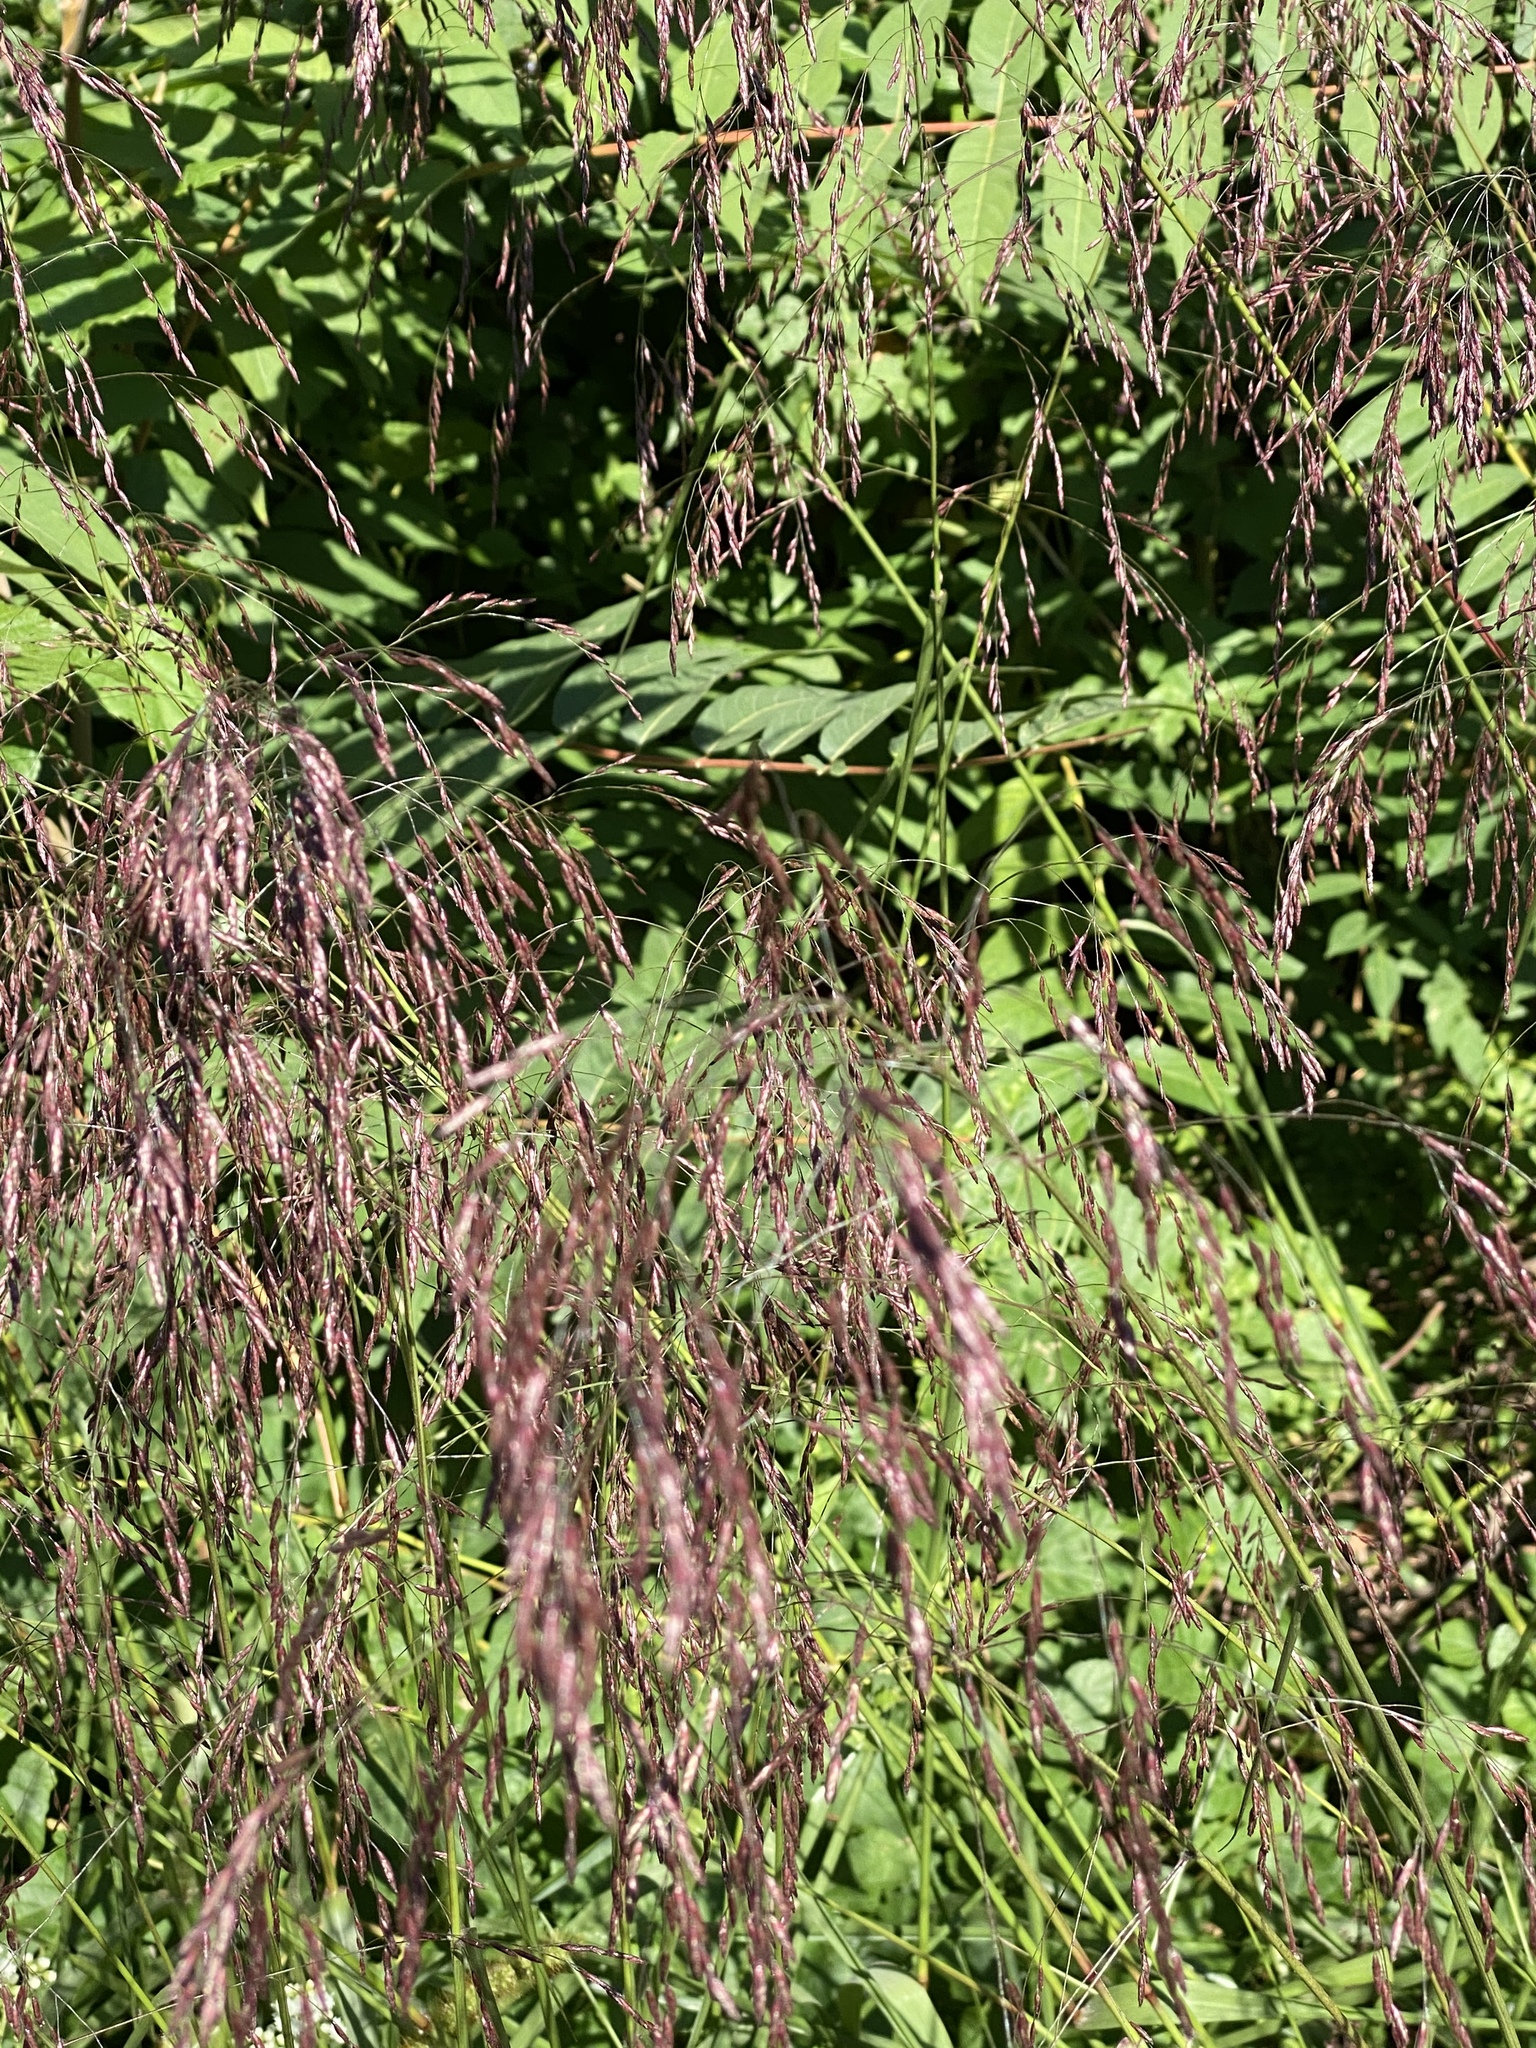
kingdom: Plantae
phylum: Tracheophyta
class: Liliopsida
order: Poales
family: Poaceae
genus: Tridens
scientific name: Tridens flavus
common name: Purpletop
